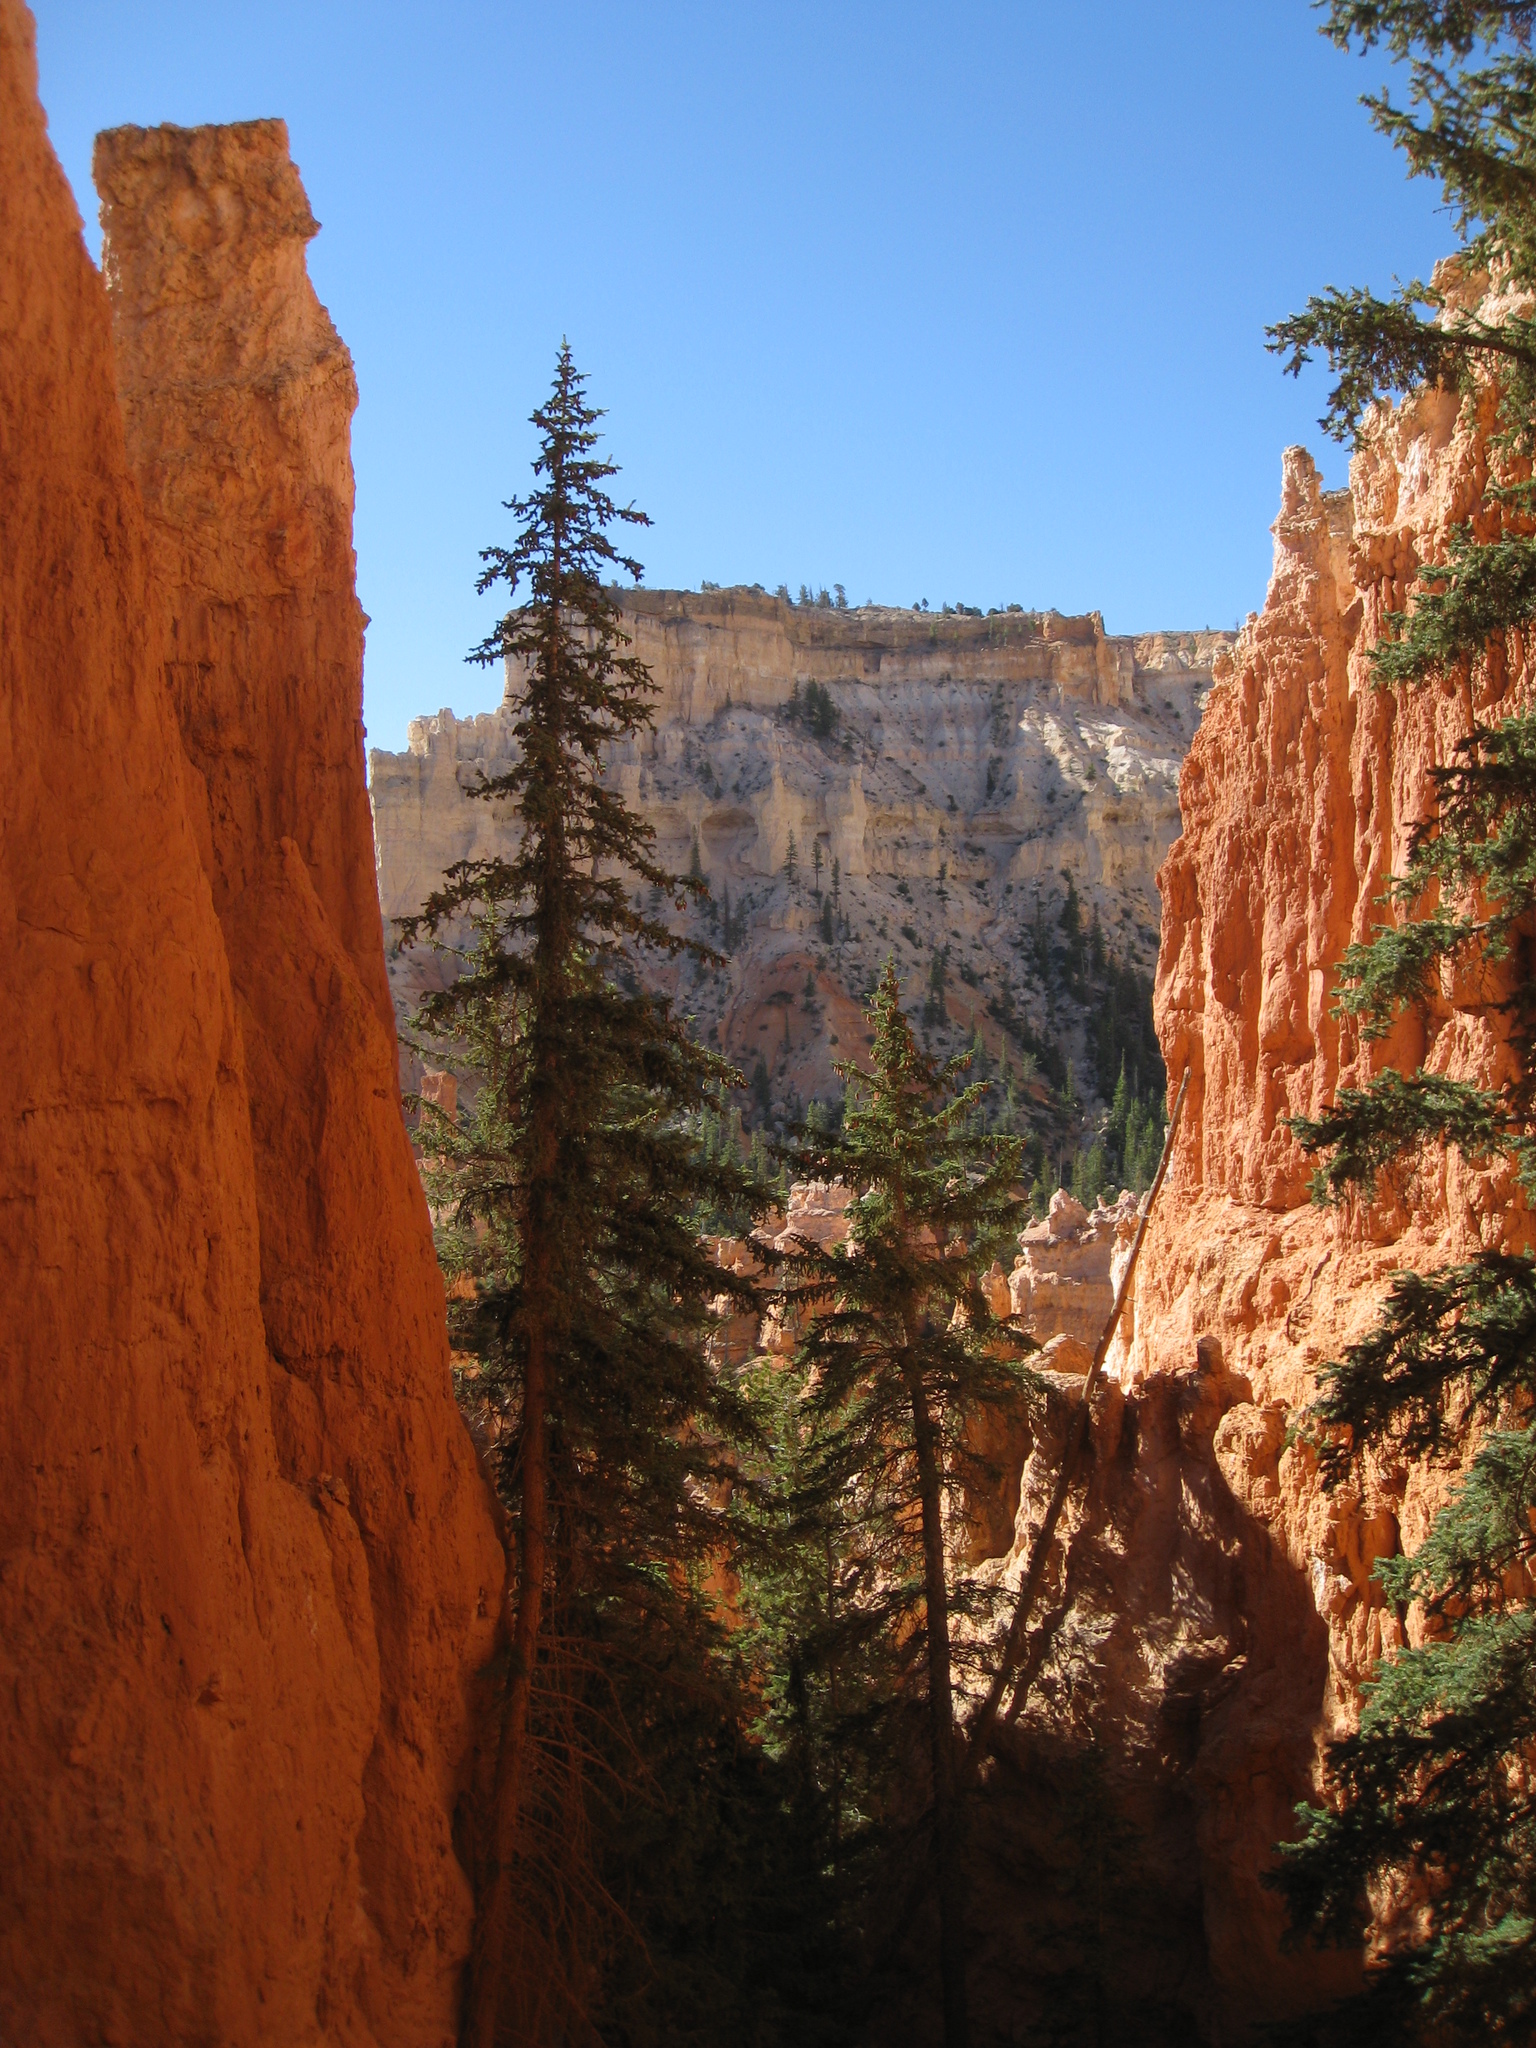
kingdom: Plantae
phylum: Tracheophyta
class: Pinopsida
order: Pinales
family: Pinaceae
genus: Pseudotsuga
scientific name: Pseudotsuga menziesii
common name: Douglas fir
